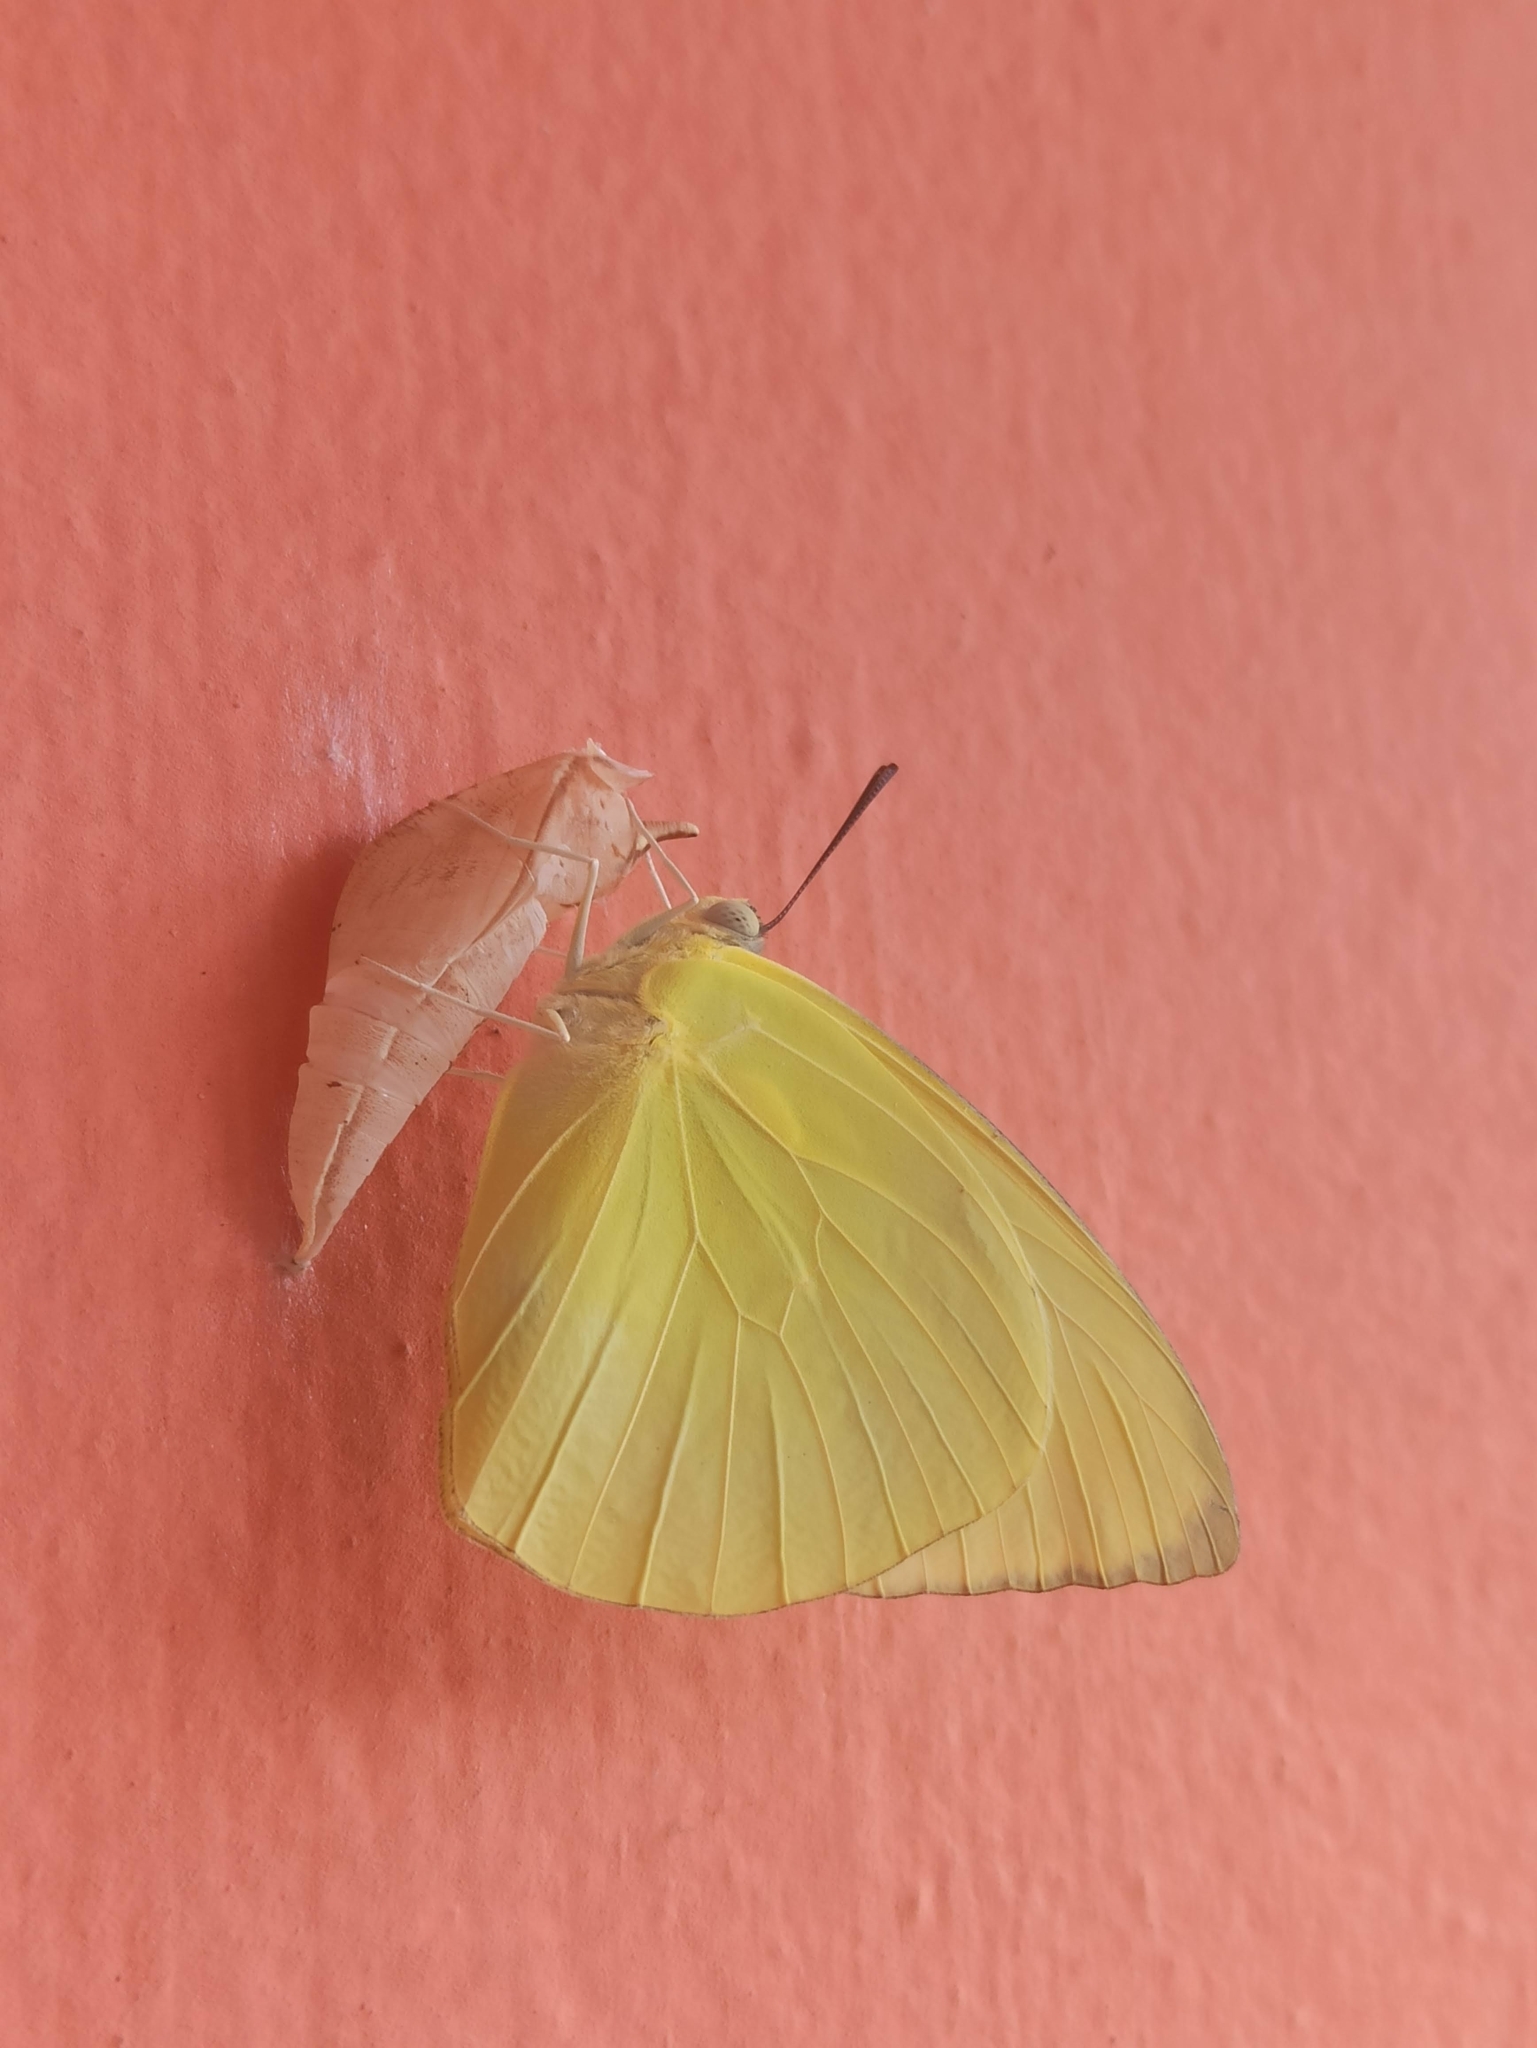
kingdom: Animalia
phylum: Arthropoda
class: Insecta
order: Lepidoptera
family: Pieridae
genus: Catopsilia
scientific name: Catopsilia pomona
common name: Common emigrant
